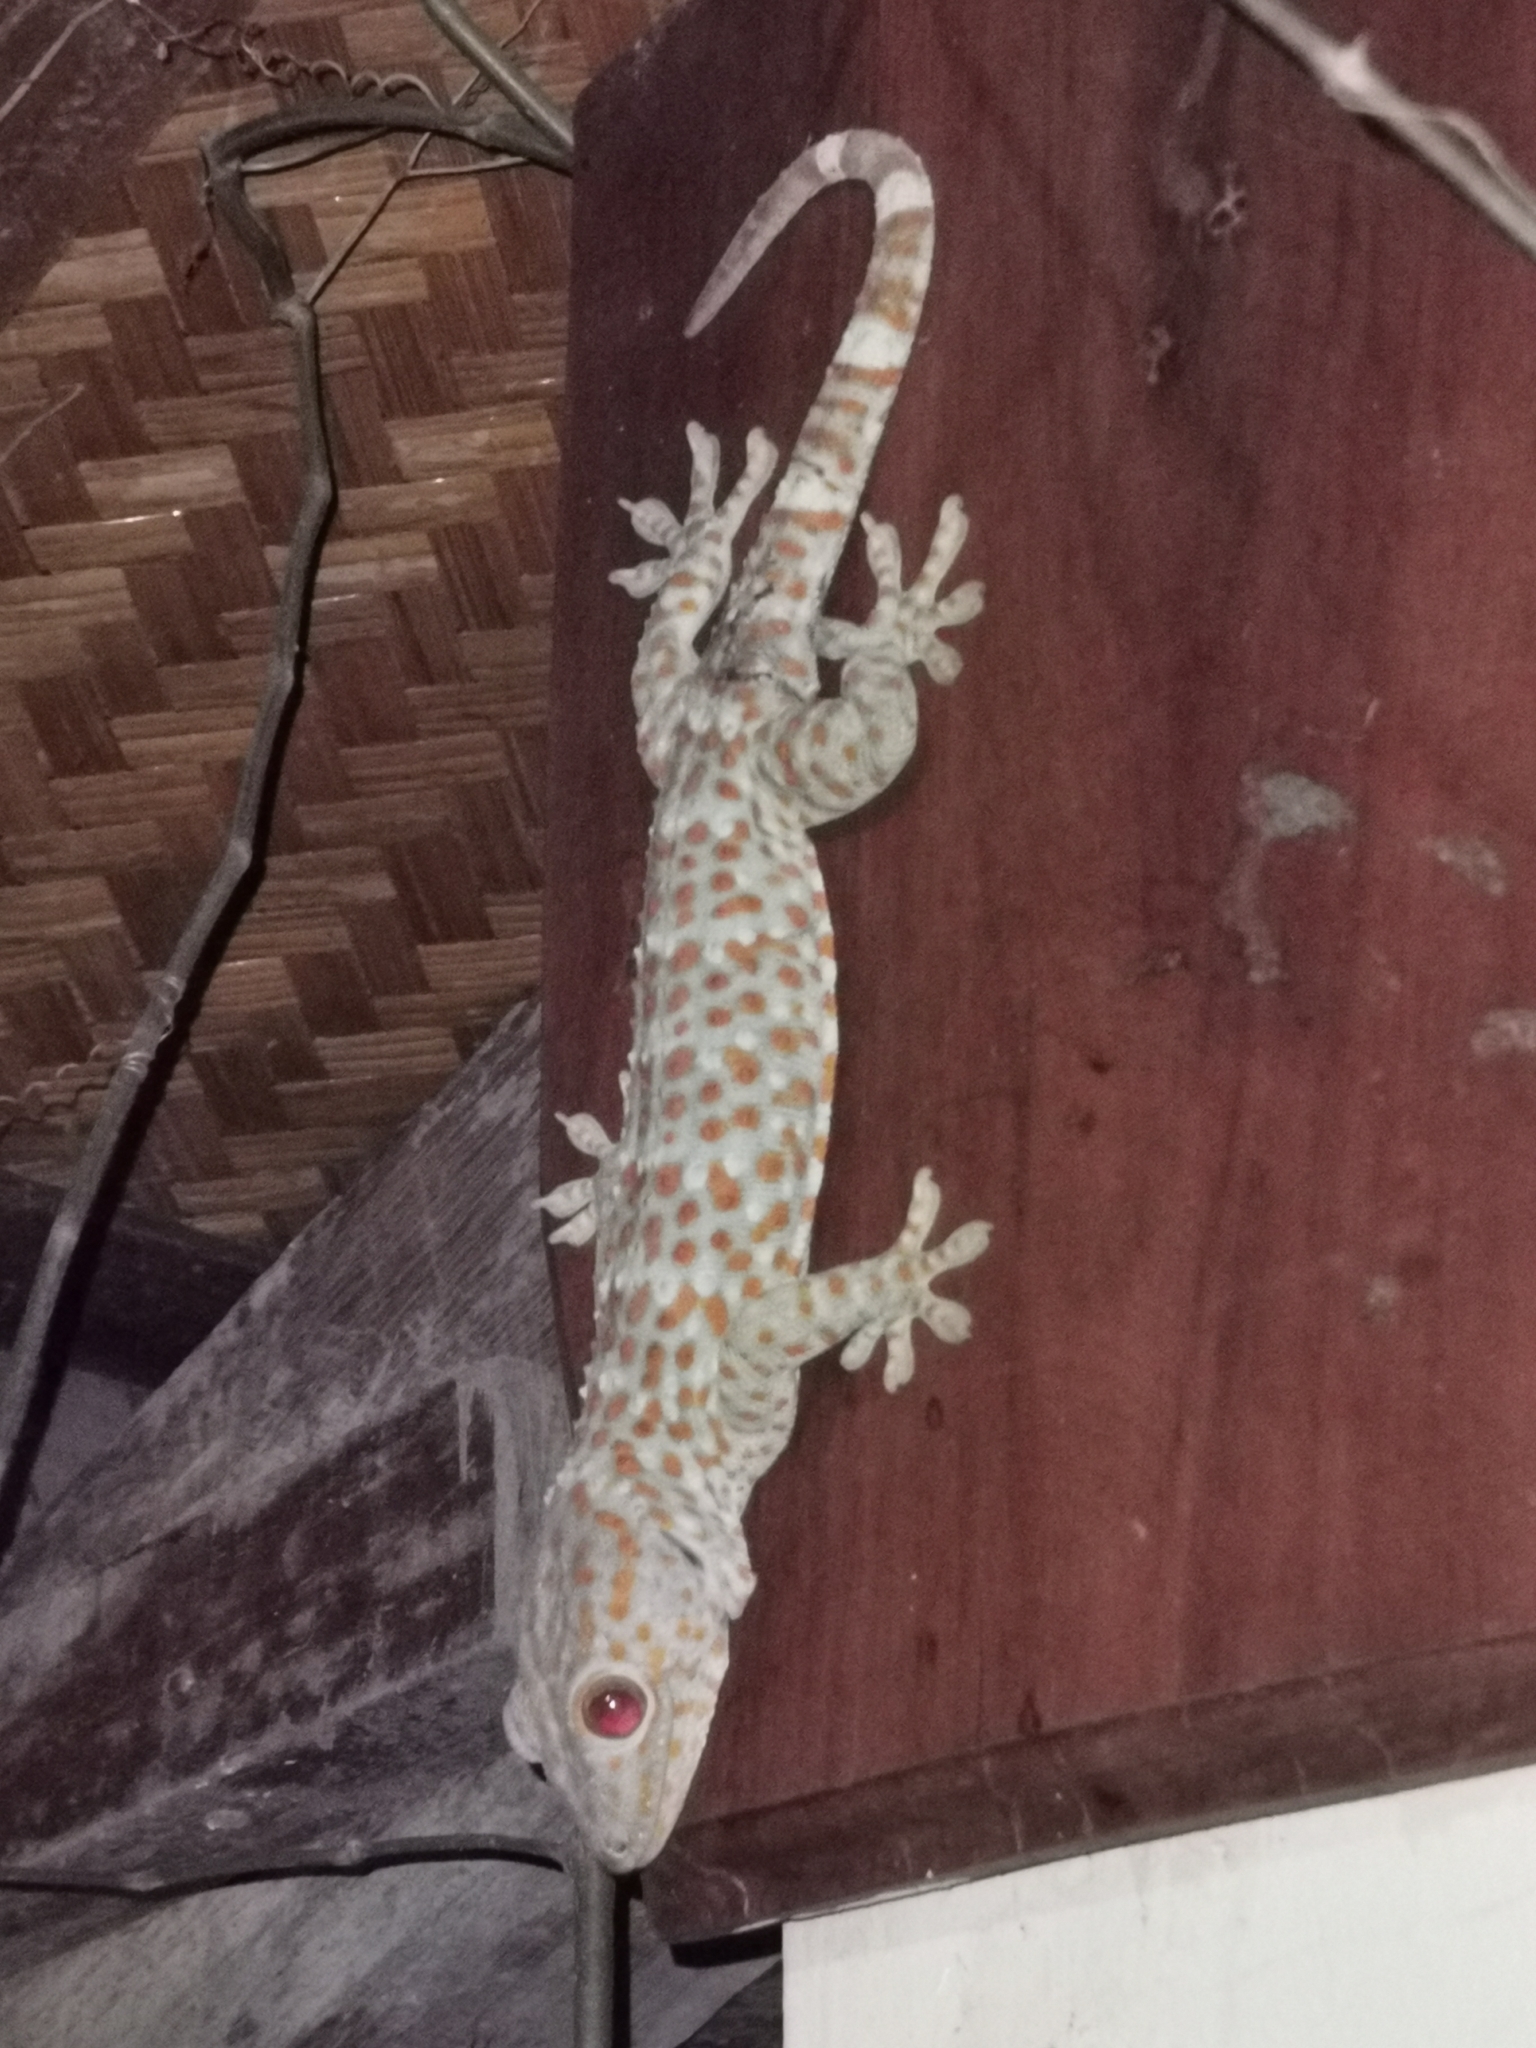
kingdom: Animalia
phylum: Chordata
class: Squamata
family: Gekkonidae
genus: Gekko
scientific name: Gekko gecko
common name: Tokay gecko
